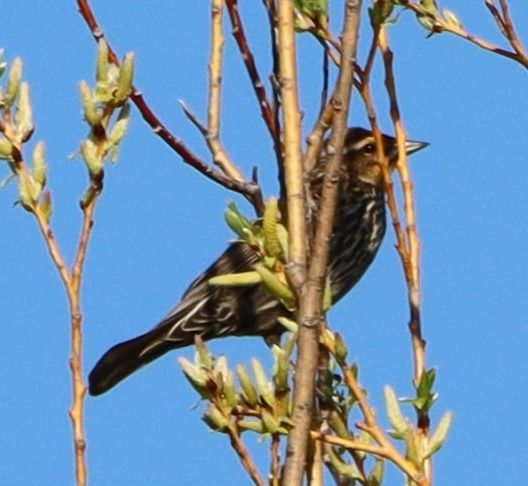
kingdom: Animalia
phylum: Chordata
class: Aves
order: Passeriformes
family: Icteridae
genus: Agelaius
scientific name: Agelaius phoeniceus
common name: Red-winged blackbird
